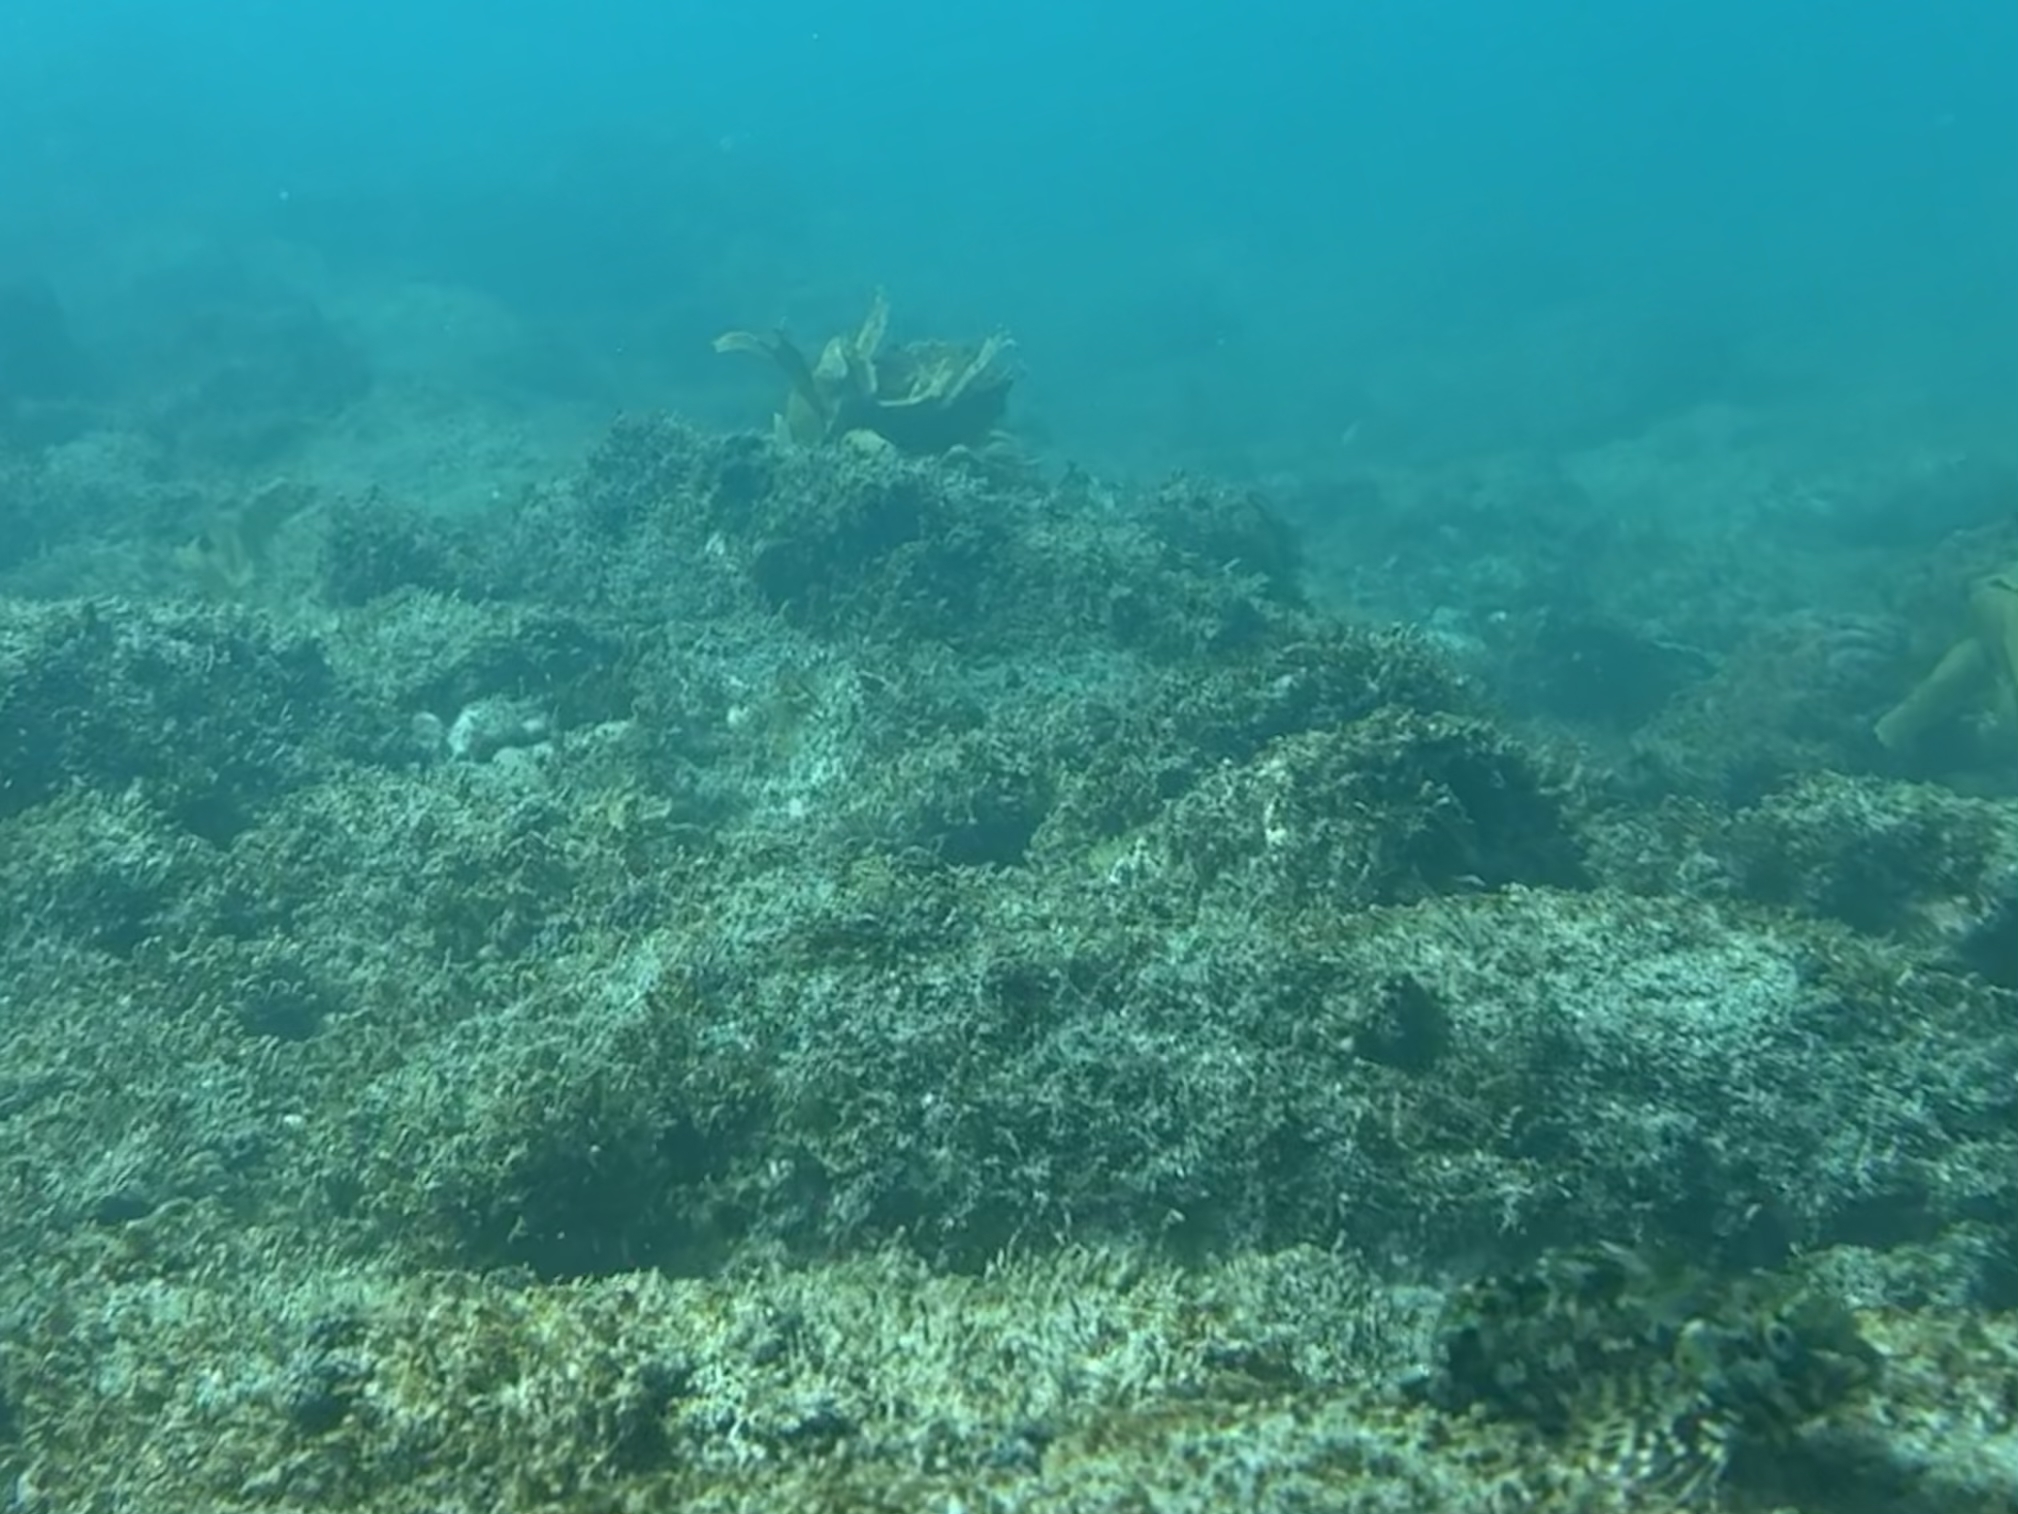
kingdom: Animalia
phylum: Chordata
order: Perciformes
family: Chironemidae
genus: Chironemus
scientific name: Chironemus marmoratus
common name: Kelpfish
